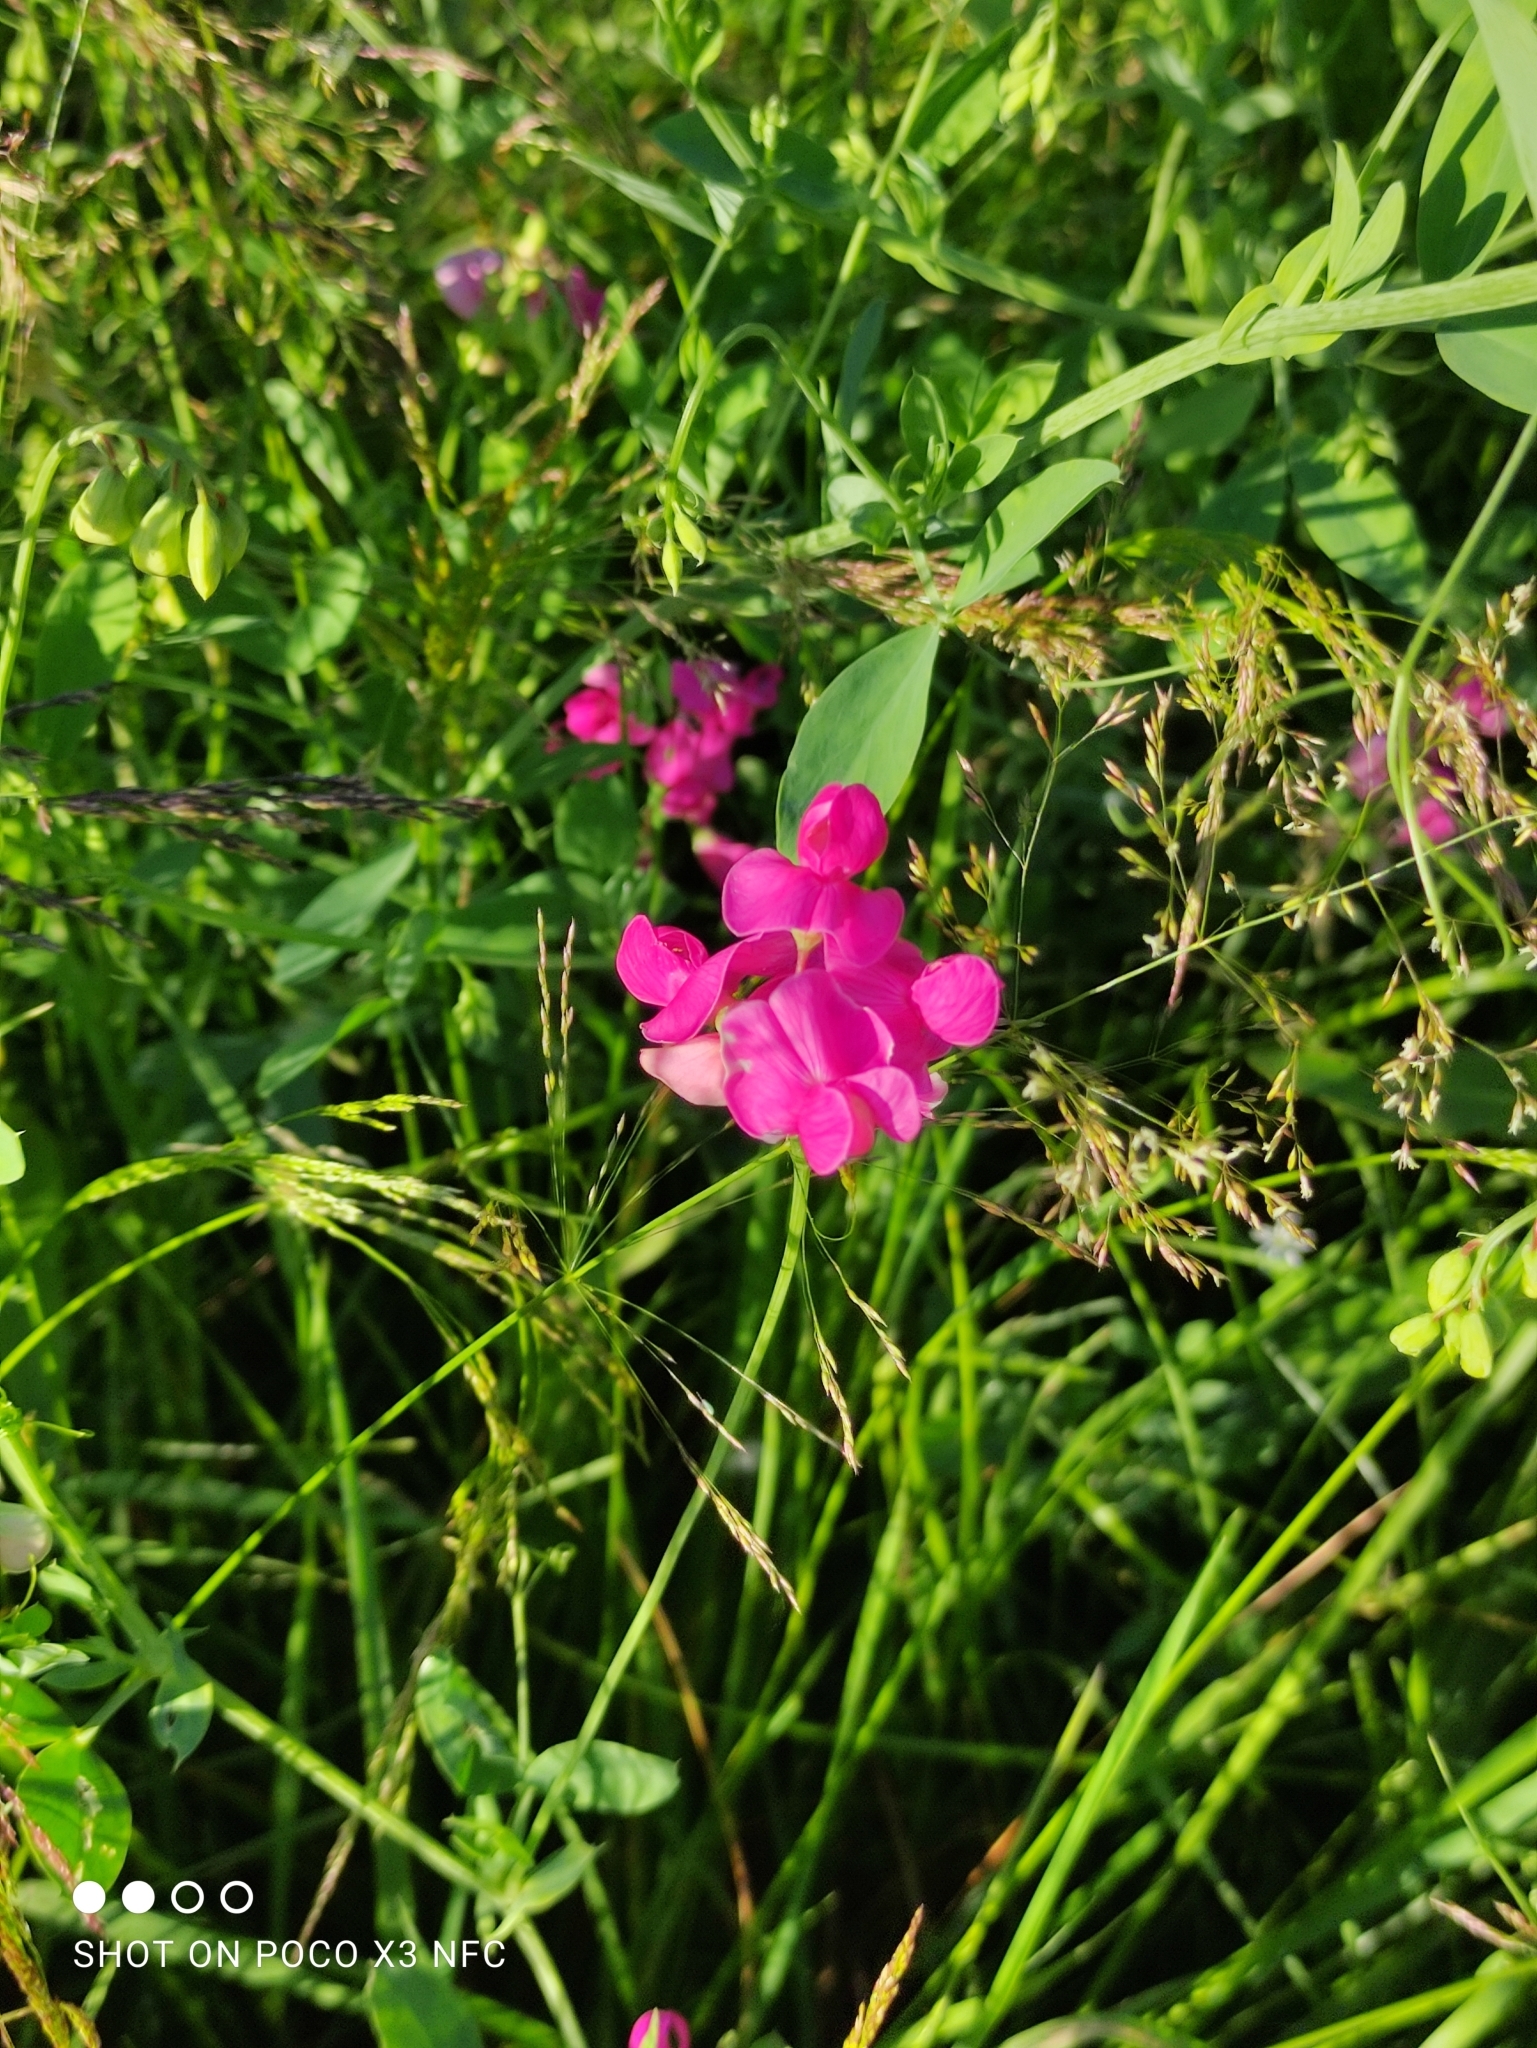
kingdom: Plantae
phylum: Tracheophyta
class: Magnoliopsida
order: Fabales
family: Fabaceae
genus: Lathyrus
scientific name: Lathyrus tuberosus
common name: Tuberous pea
